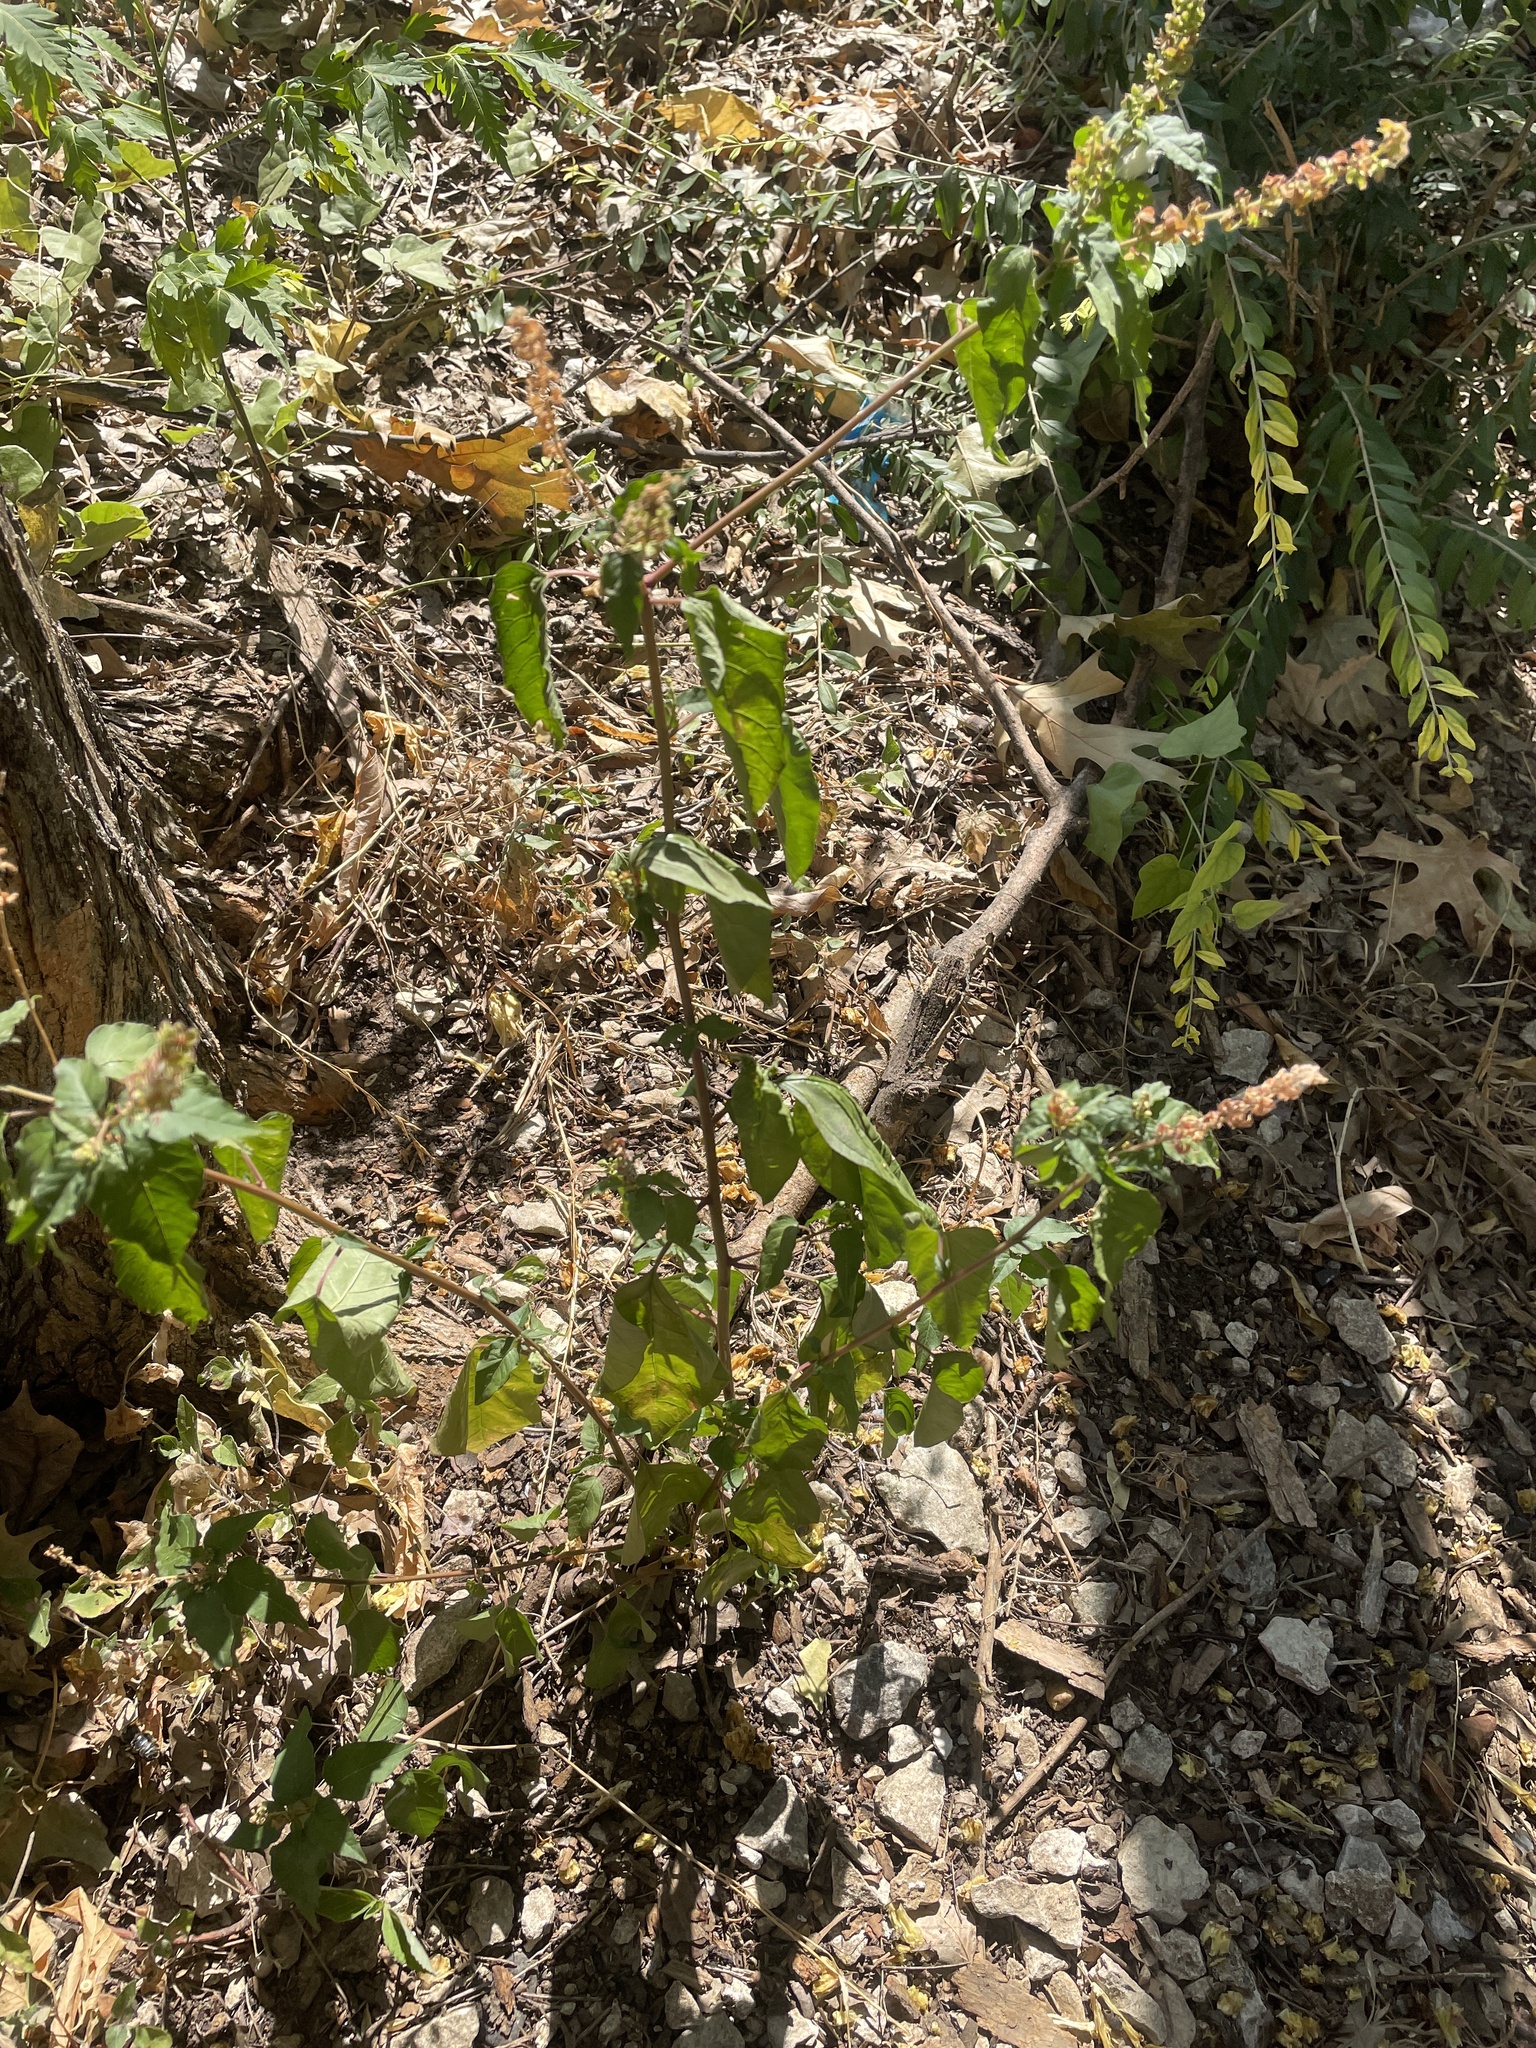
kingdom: Plantae
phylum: Tracheophyta
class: Magnoliopsida
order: Caryophyllales
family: Phytolaccaceae
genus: Rivina
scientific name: Rivina humilis
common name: Rougeplant
